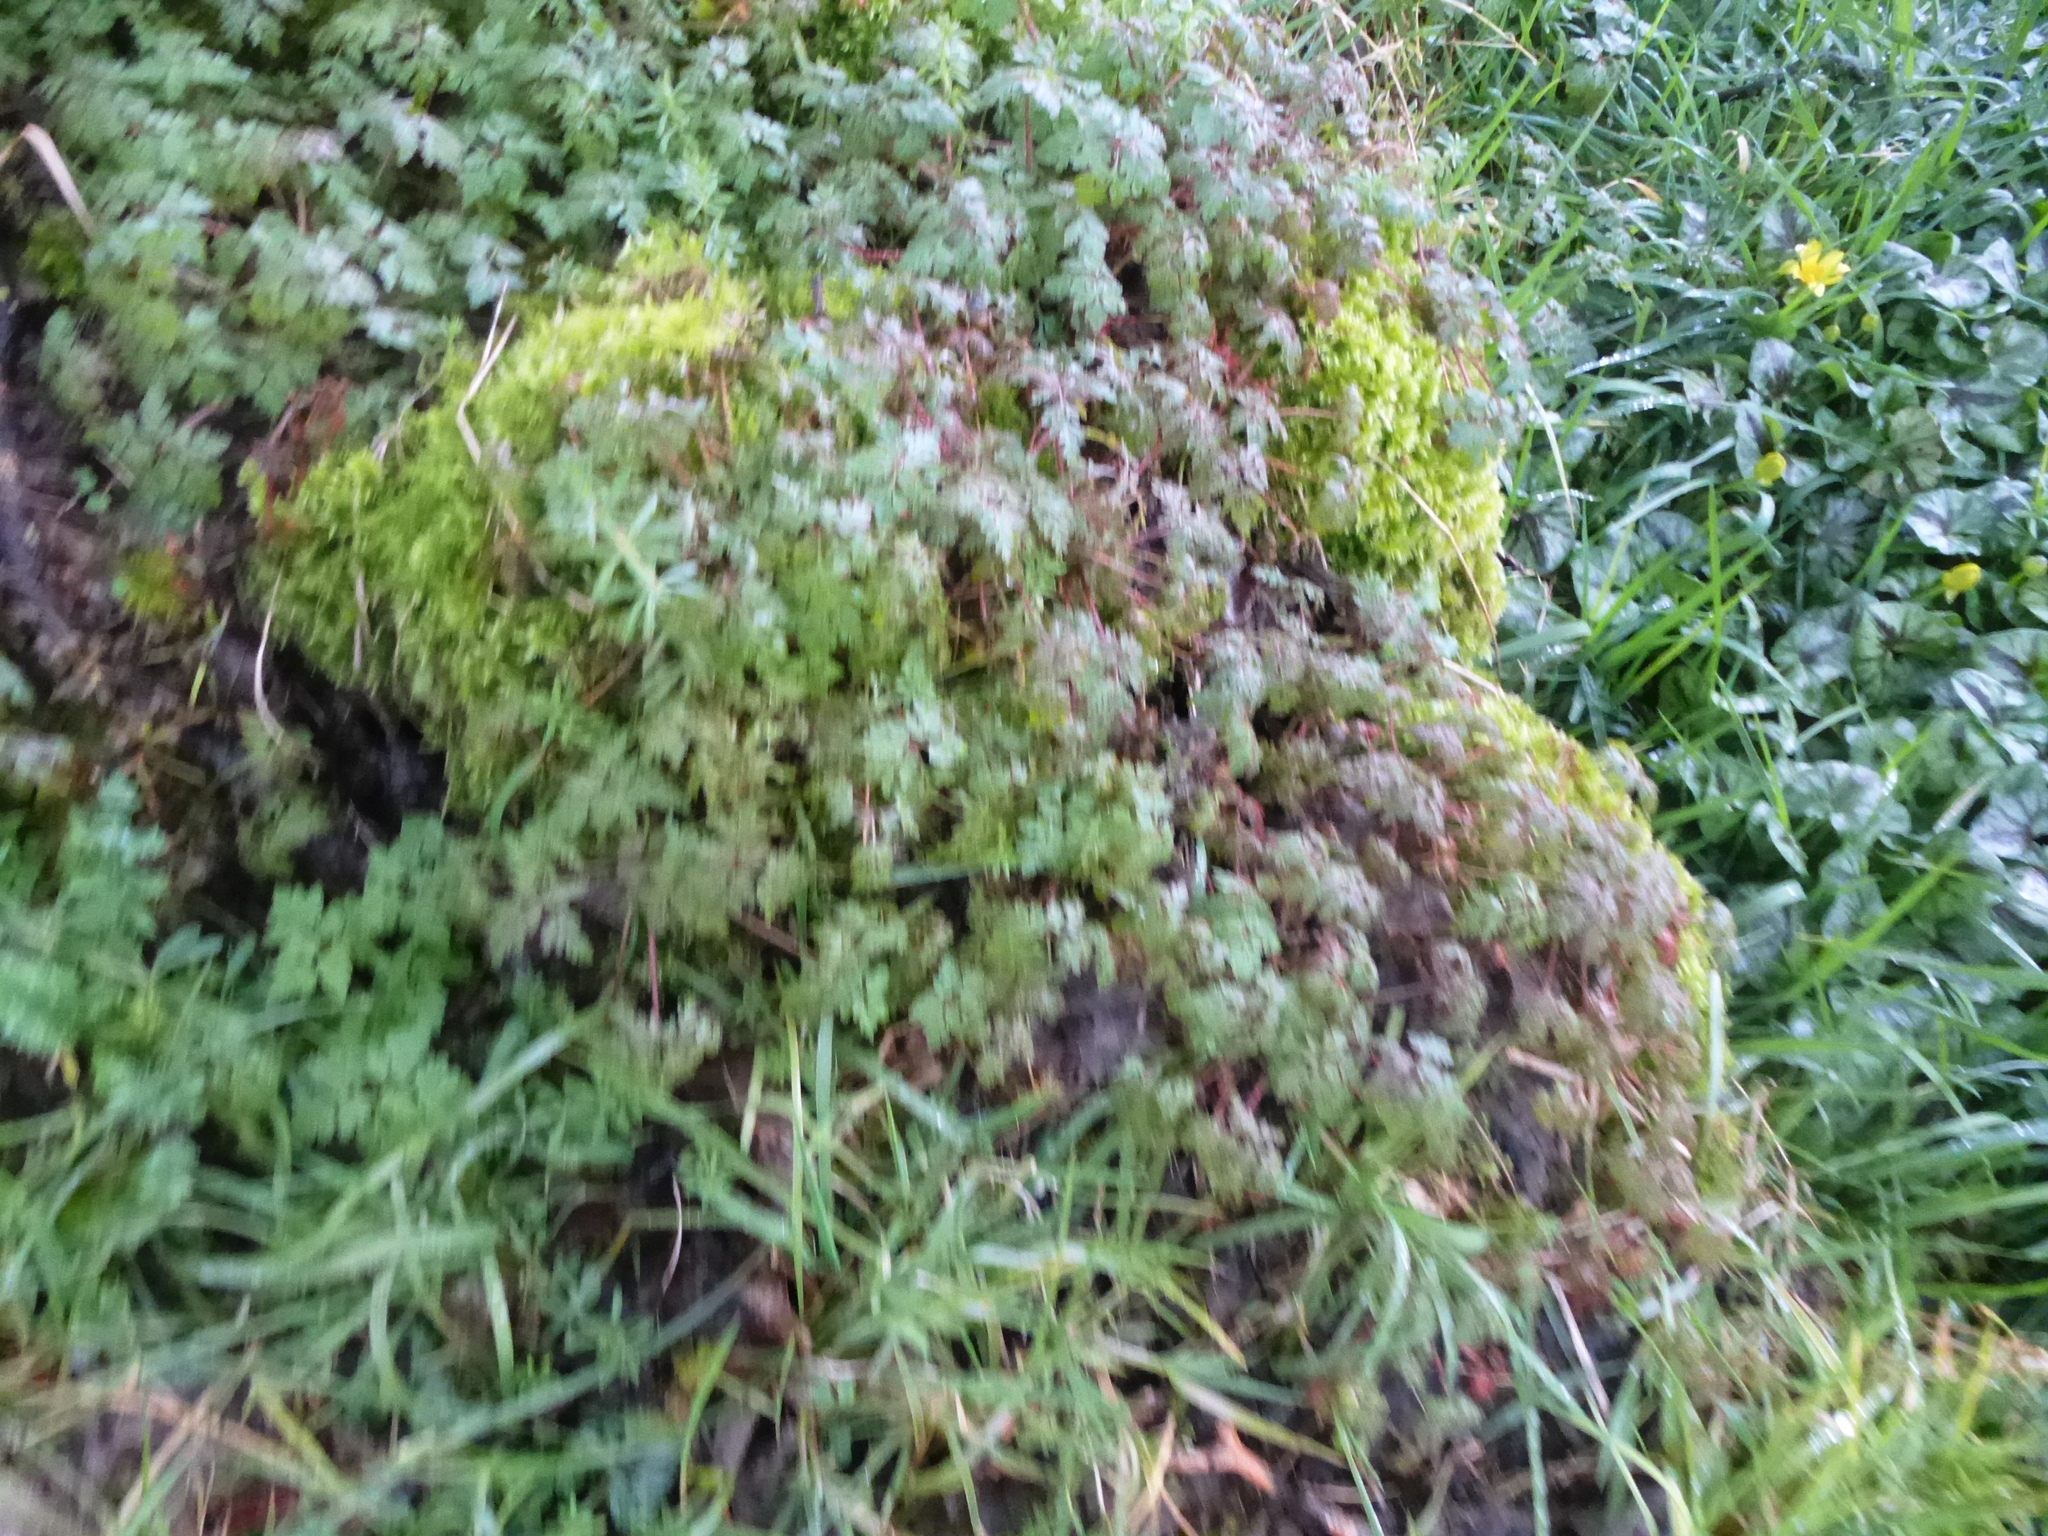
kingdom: Plantae
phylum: Tracheophyta
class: Magnoliopsida
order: Geraniales
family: Geraniaceae
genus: Geranium
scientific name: Geranium robertianum
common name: Herb-robert
